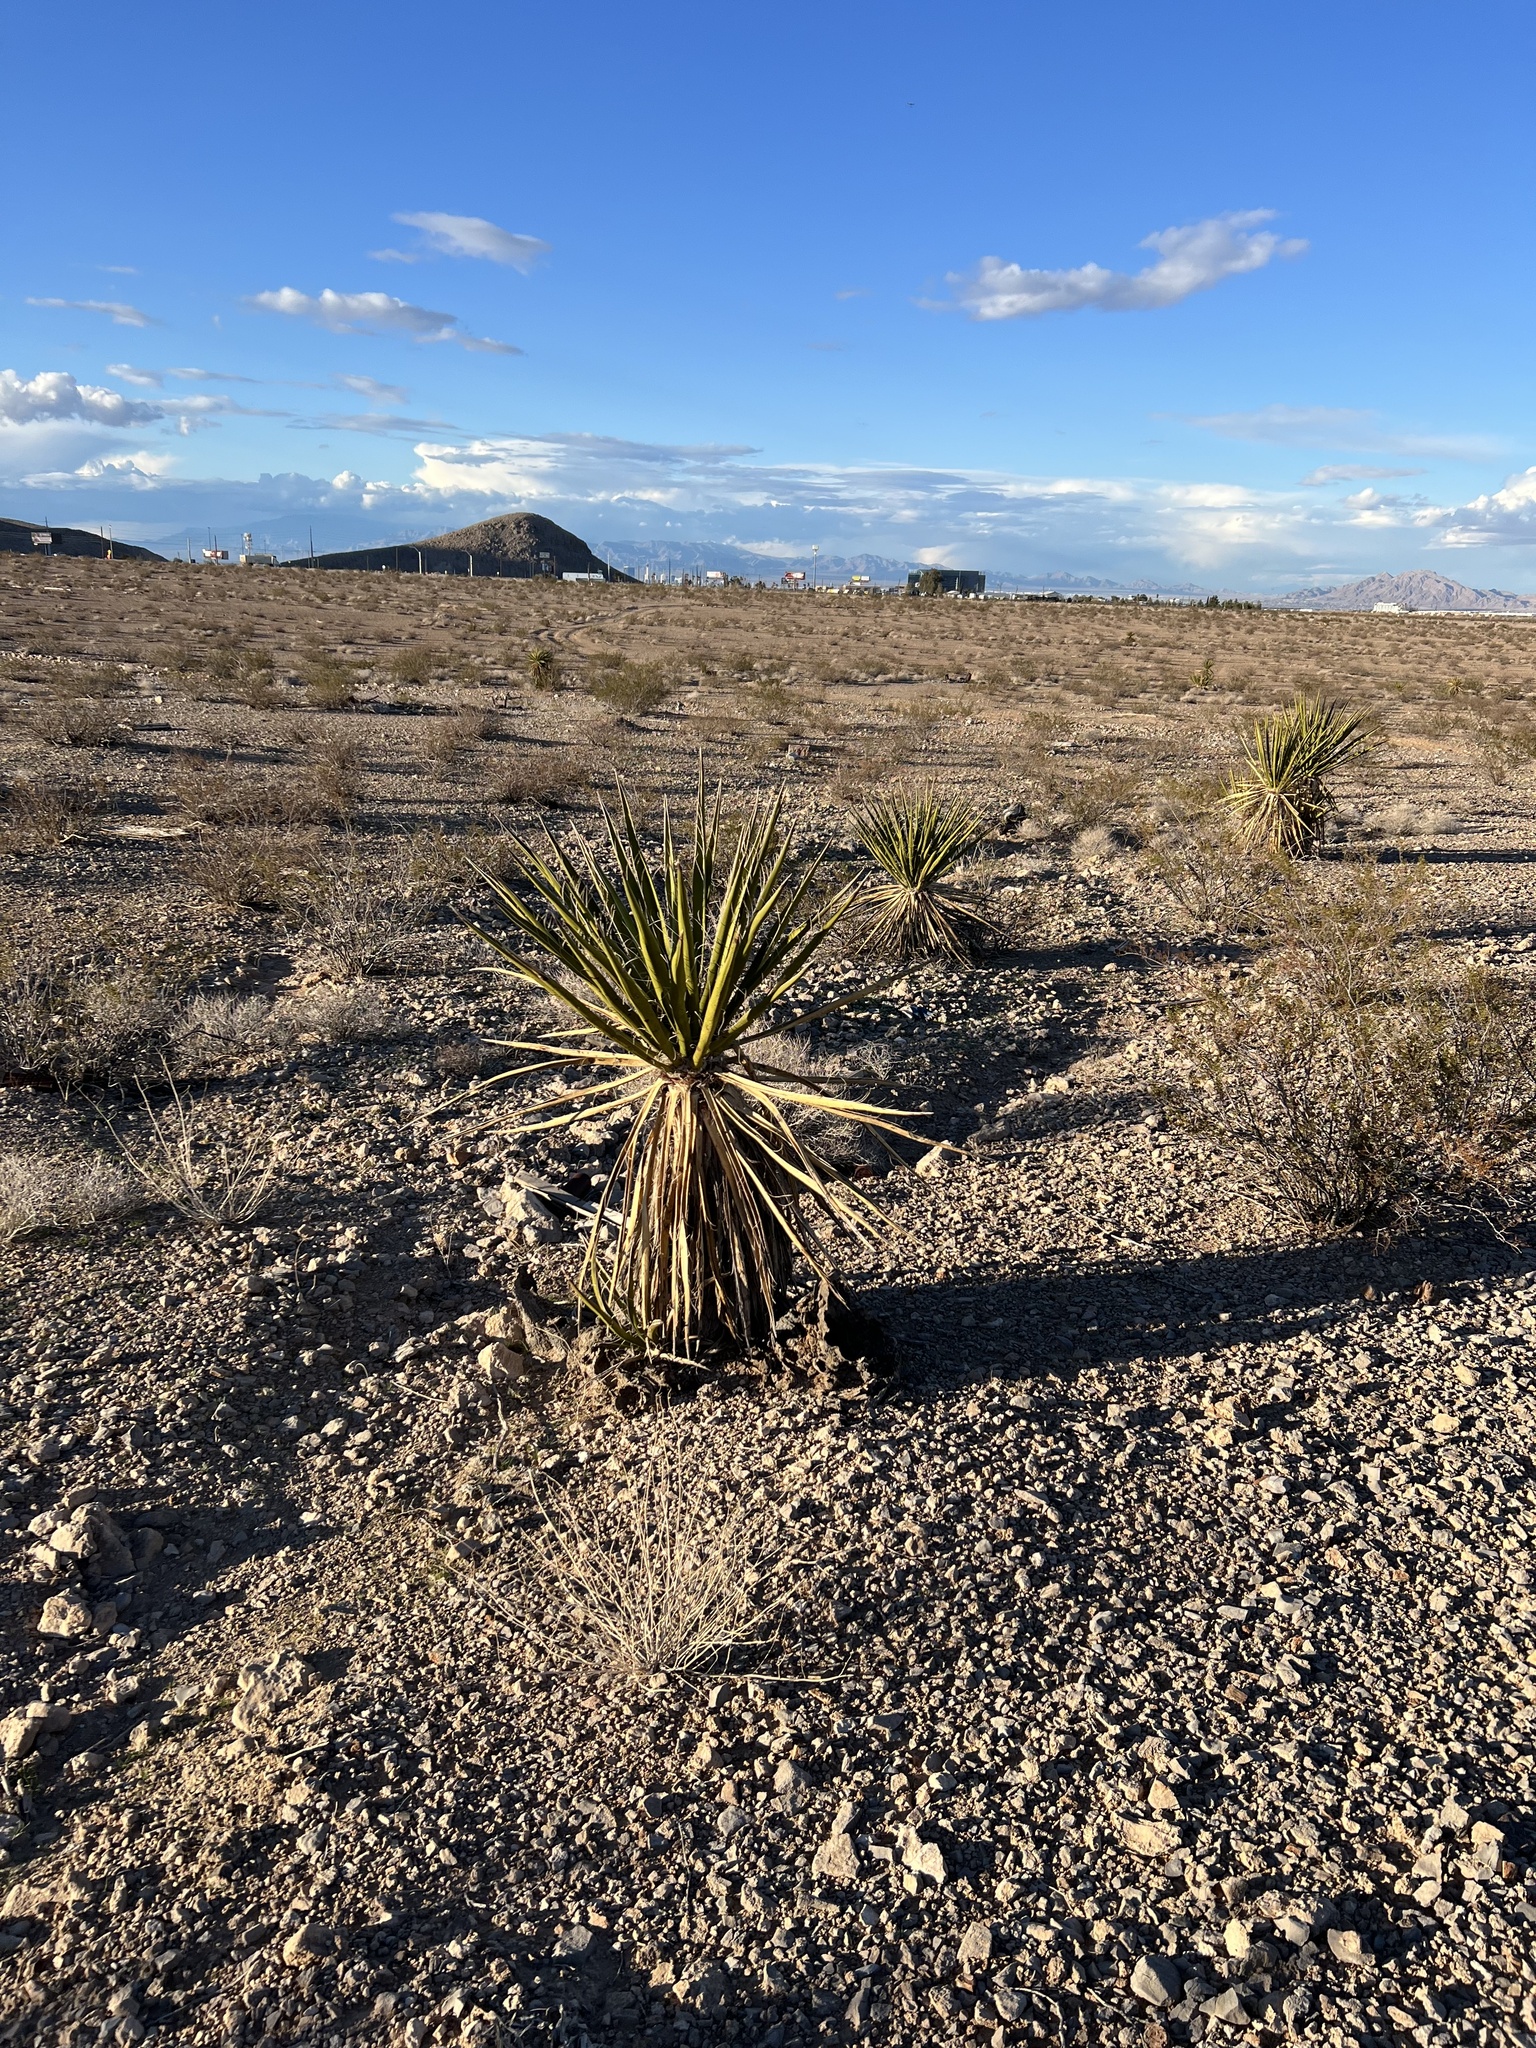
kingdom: Plantae
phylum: Tracheophyta
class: Liliopsida
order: Asparagales
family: Asparagaceae
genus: Yucca
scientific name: Yucca schidigera
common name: Mojave yucca
